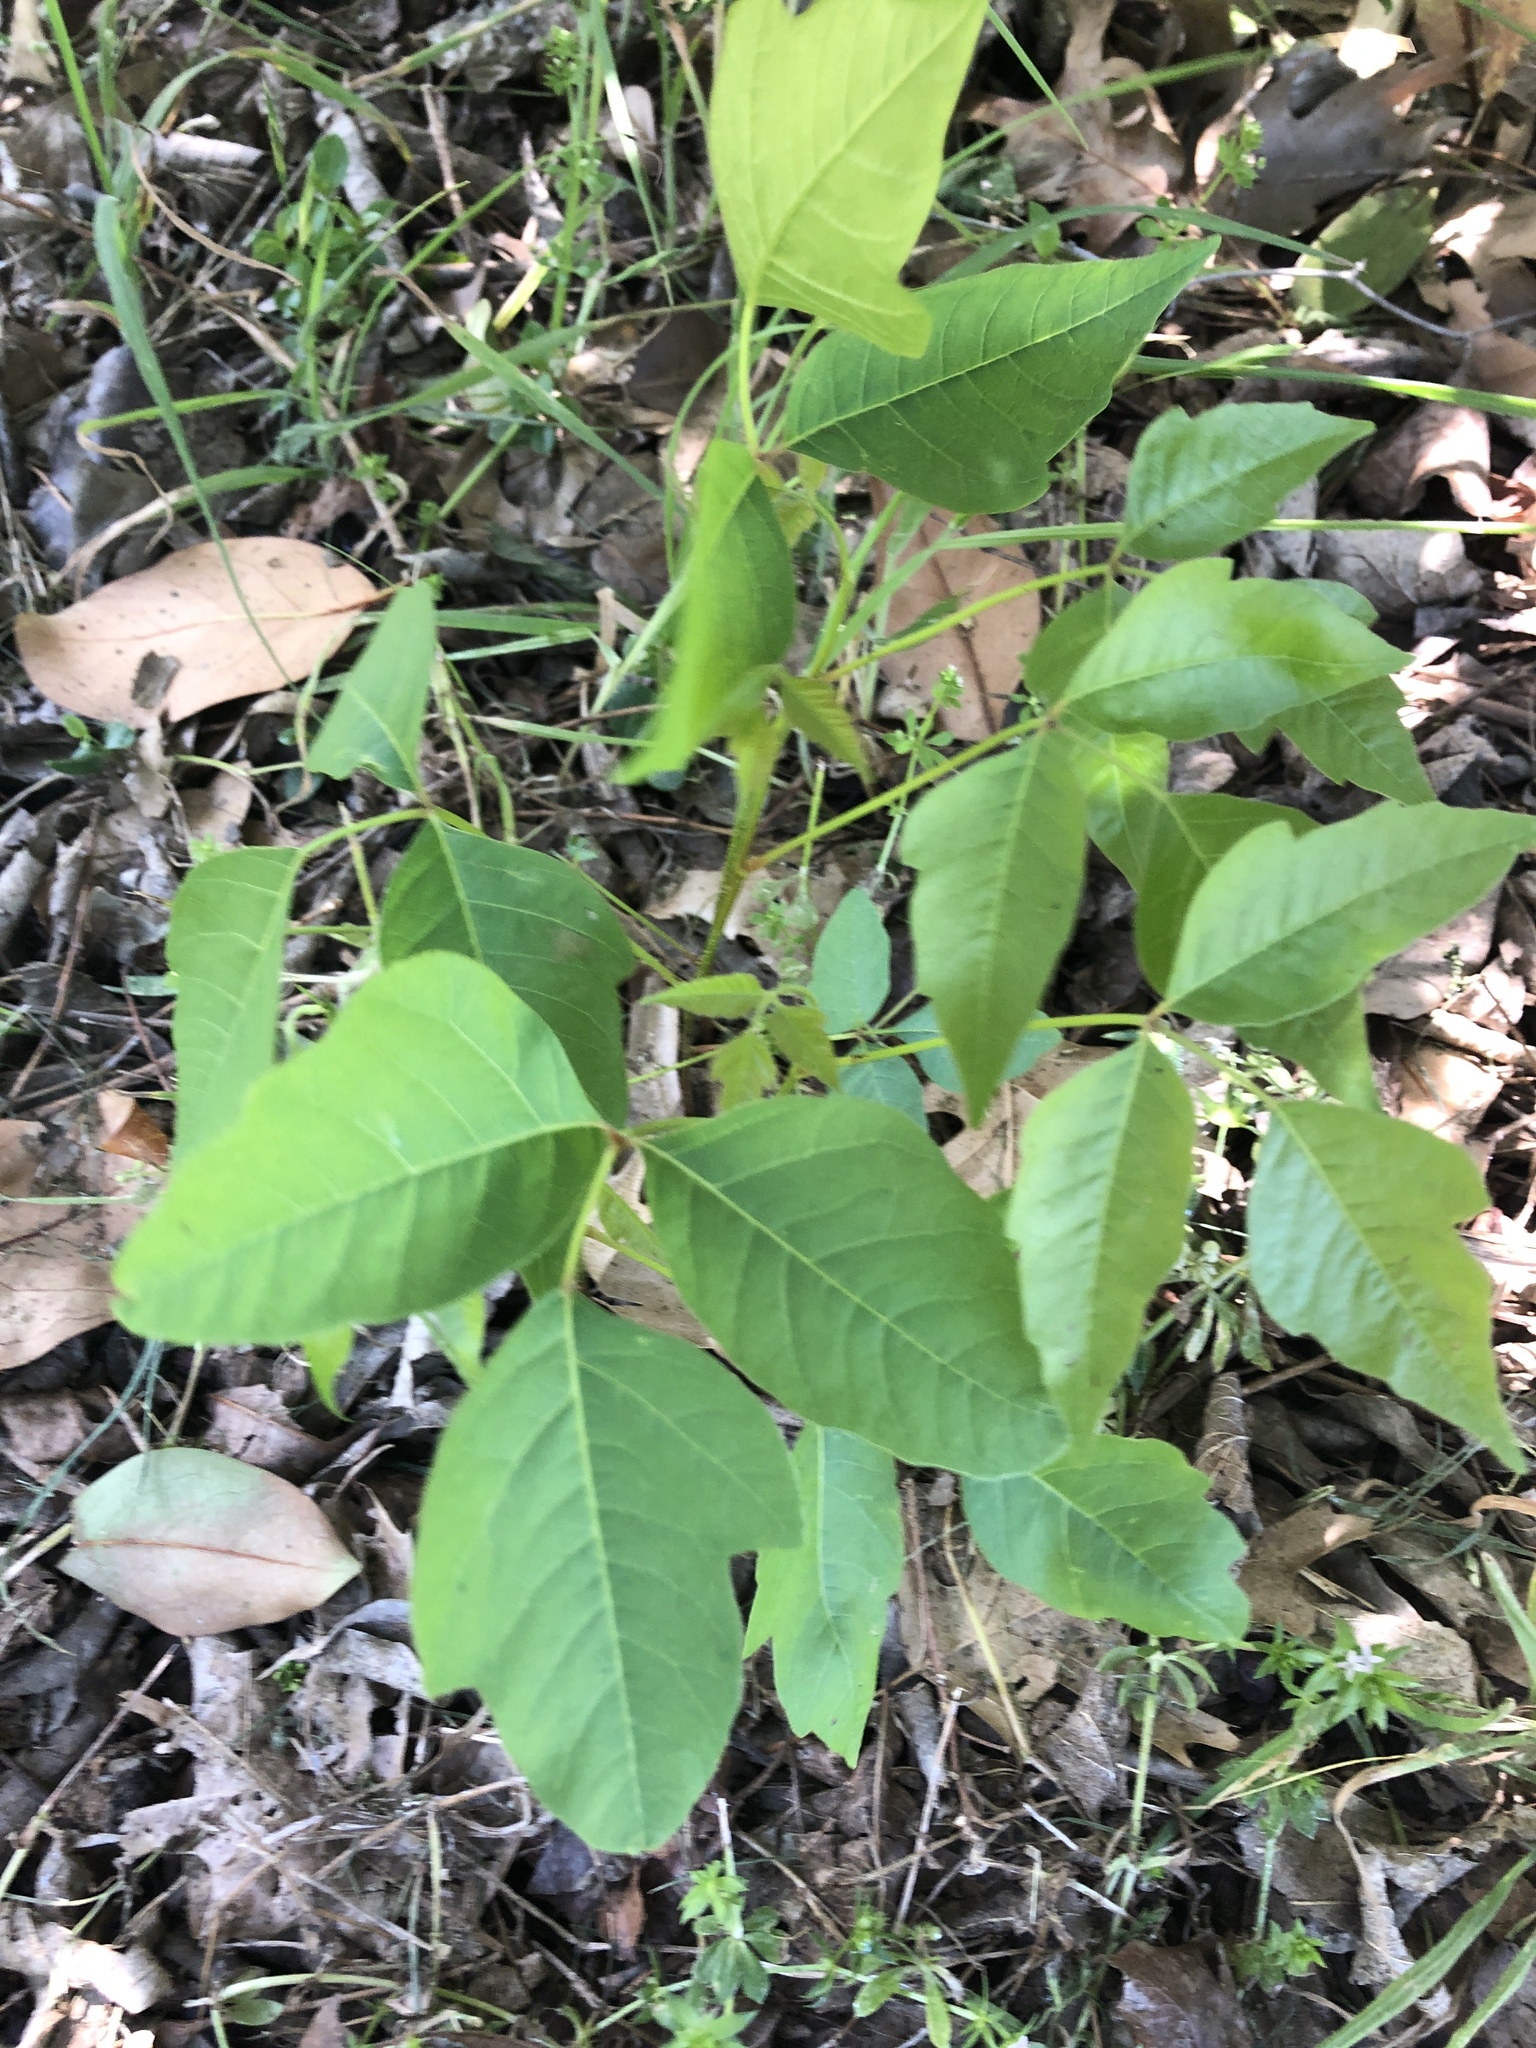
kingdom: Plantae
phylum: Tracheophyta
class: Magnoliopsida
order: Sapindales
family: Anacardiaceae
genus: Toxicodendron
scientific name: Toxicodendron radicans
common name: Poison ivy
